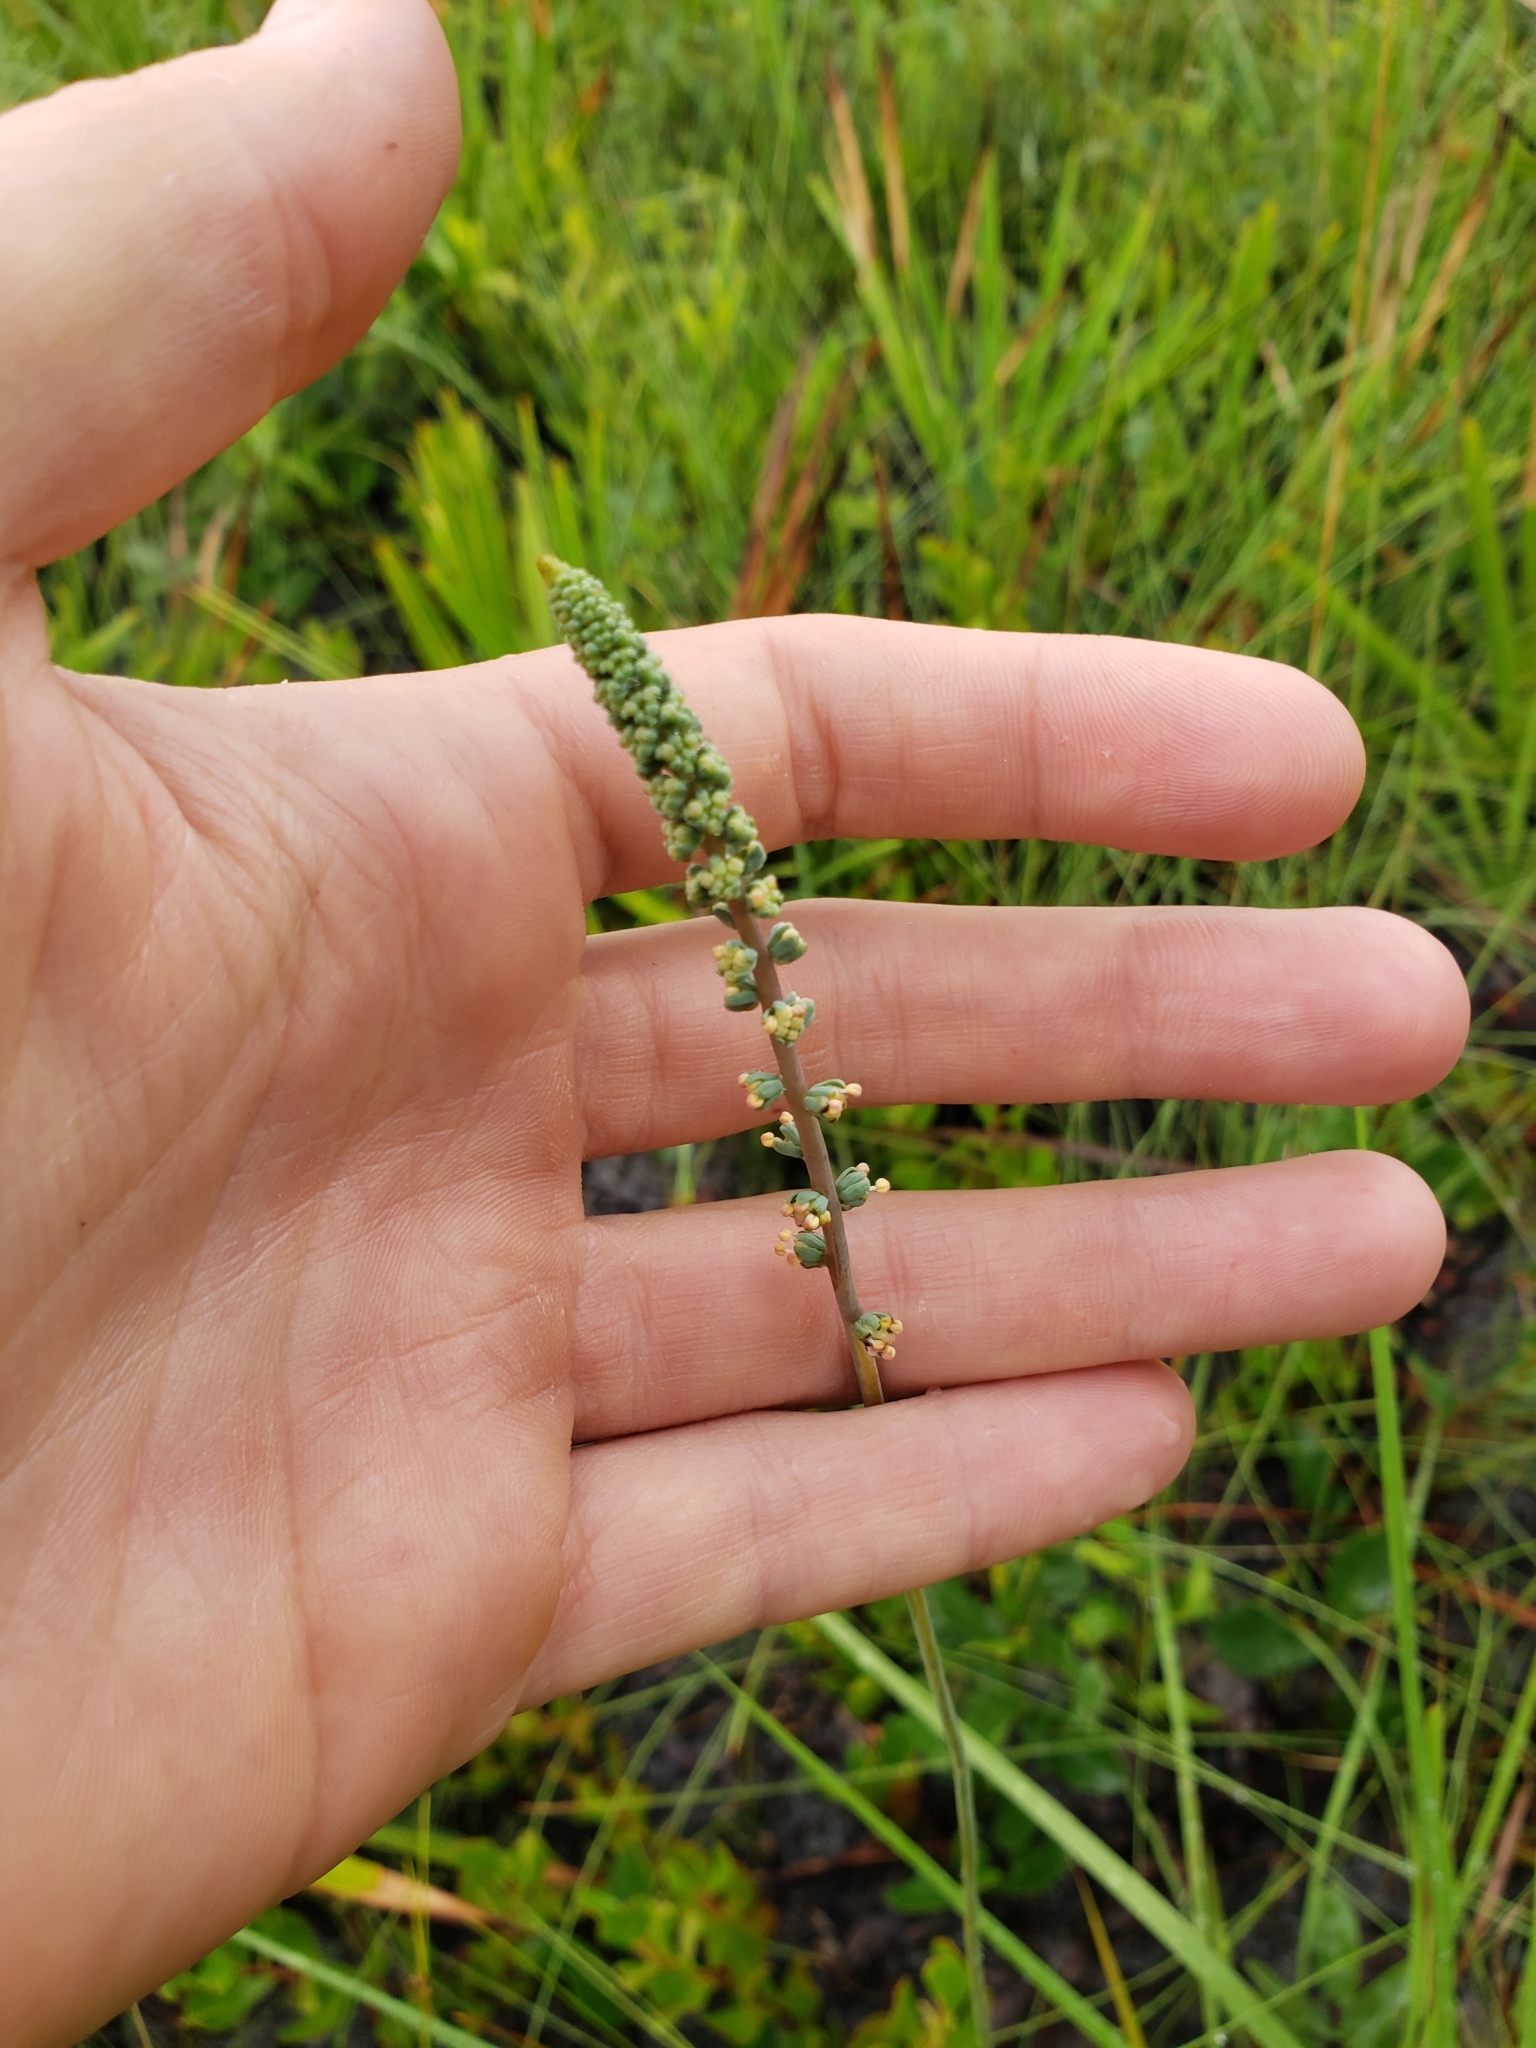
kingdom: Plantae
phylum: Tracheophyta
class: Liliopsida
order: Liliales
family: Melanthiaceae
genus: Schoenocaulon
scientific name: Schoenocaulon dubium
